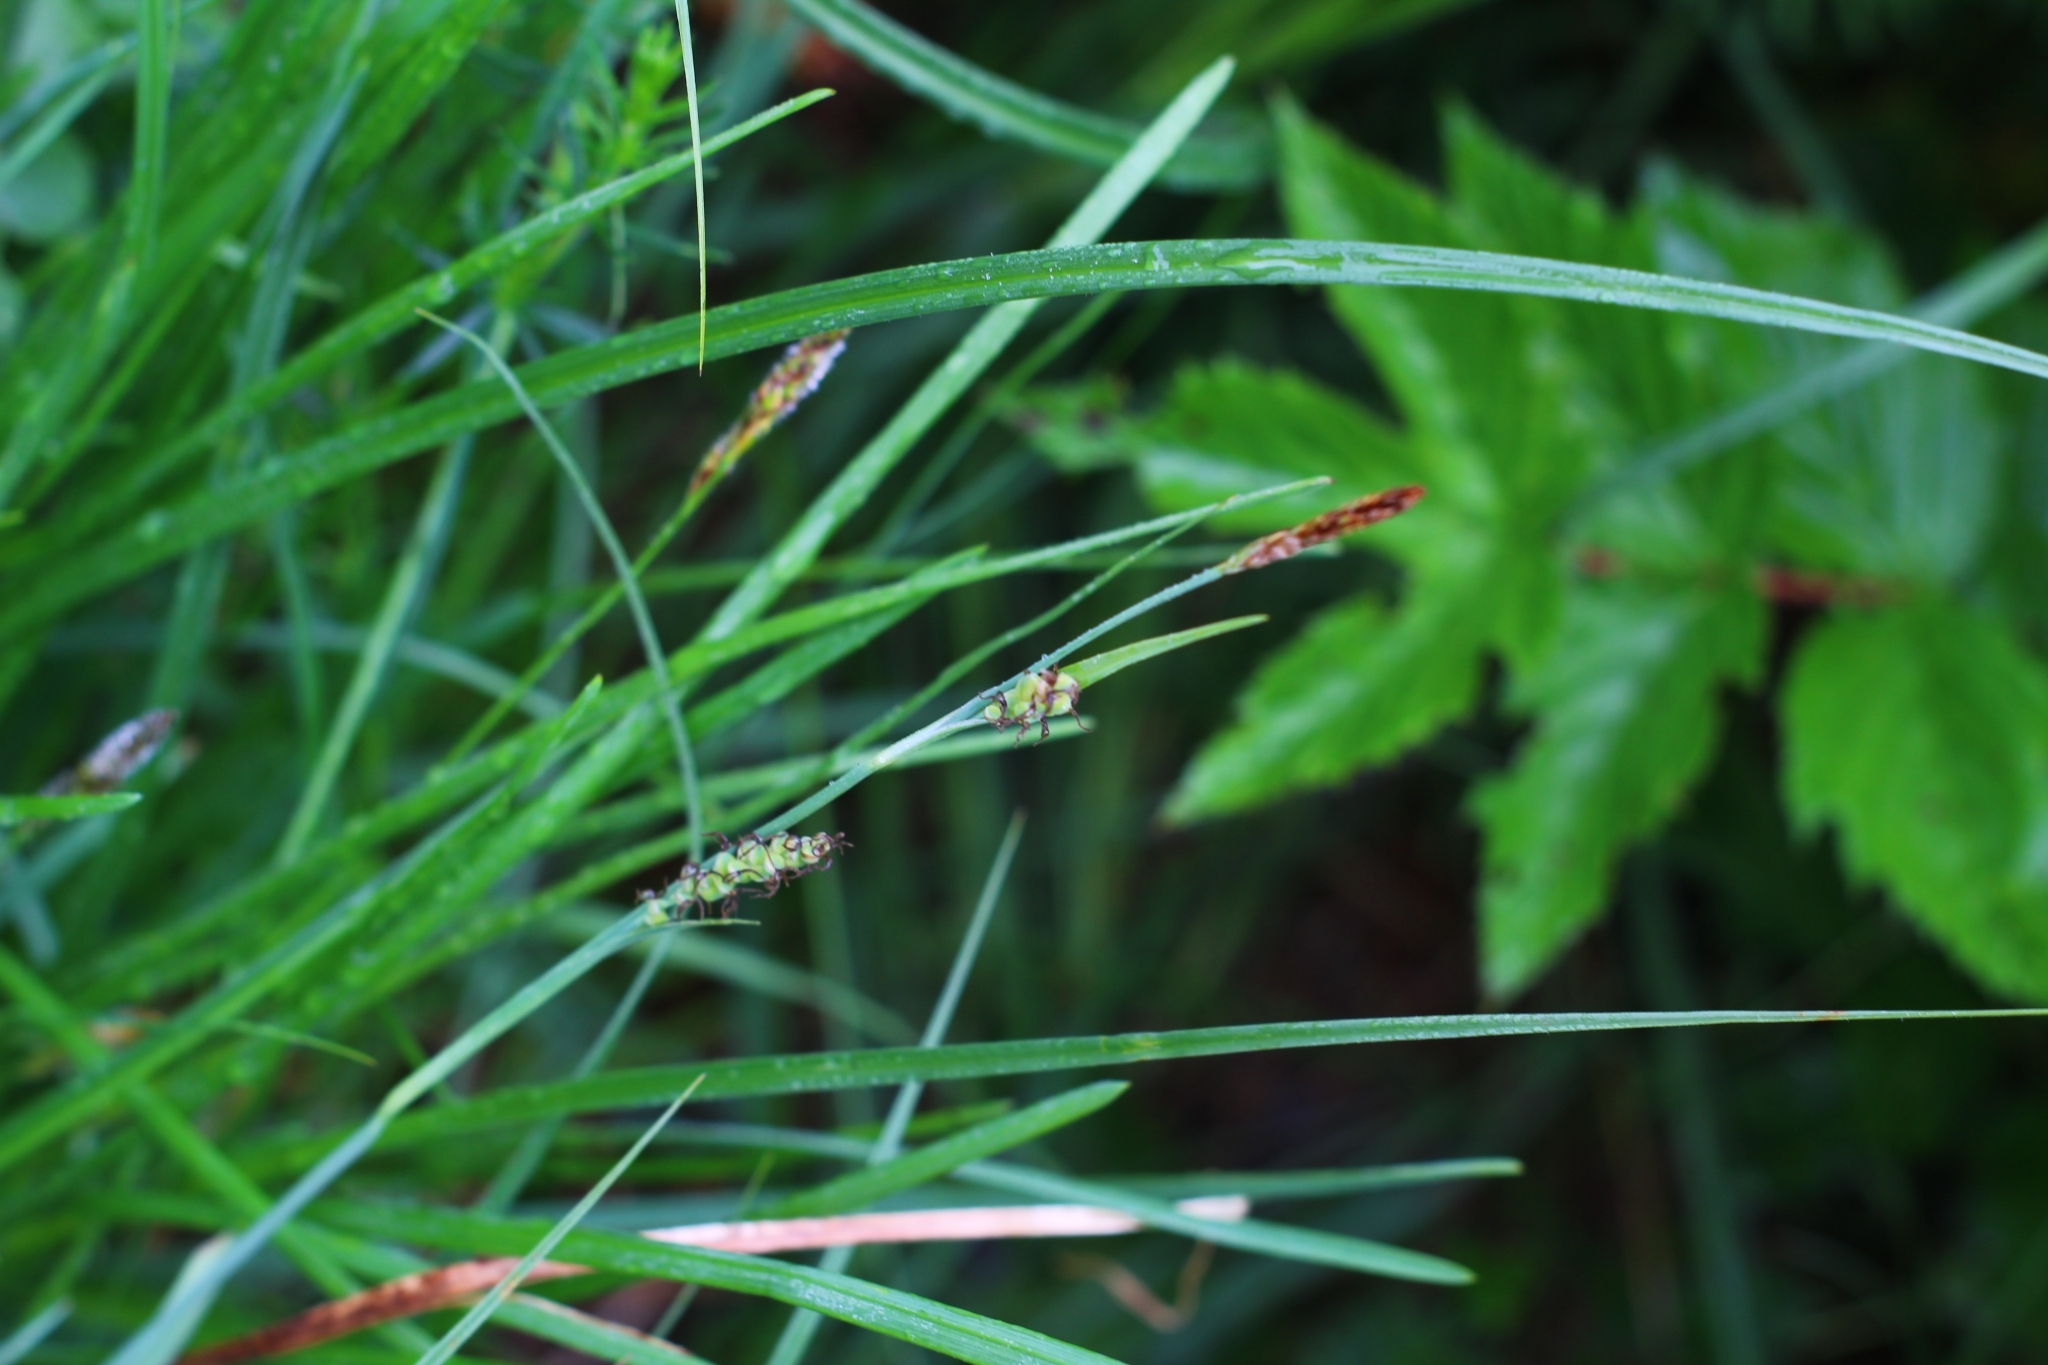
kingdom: Plantae
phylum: Tracheophyta
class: Liliopsida
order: Poales
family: Cyperaceae
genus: Carex
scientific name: Carex panicea
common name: Carnation sedge
